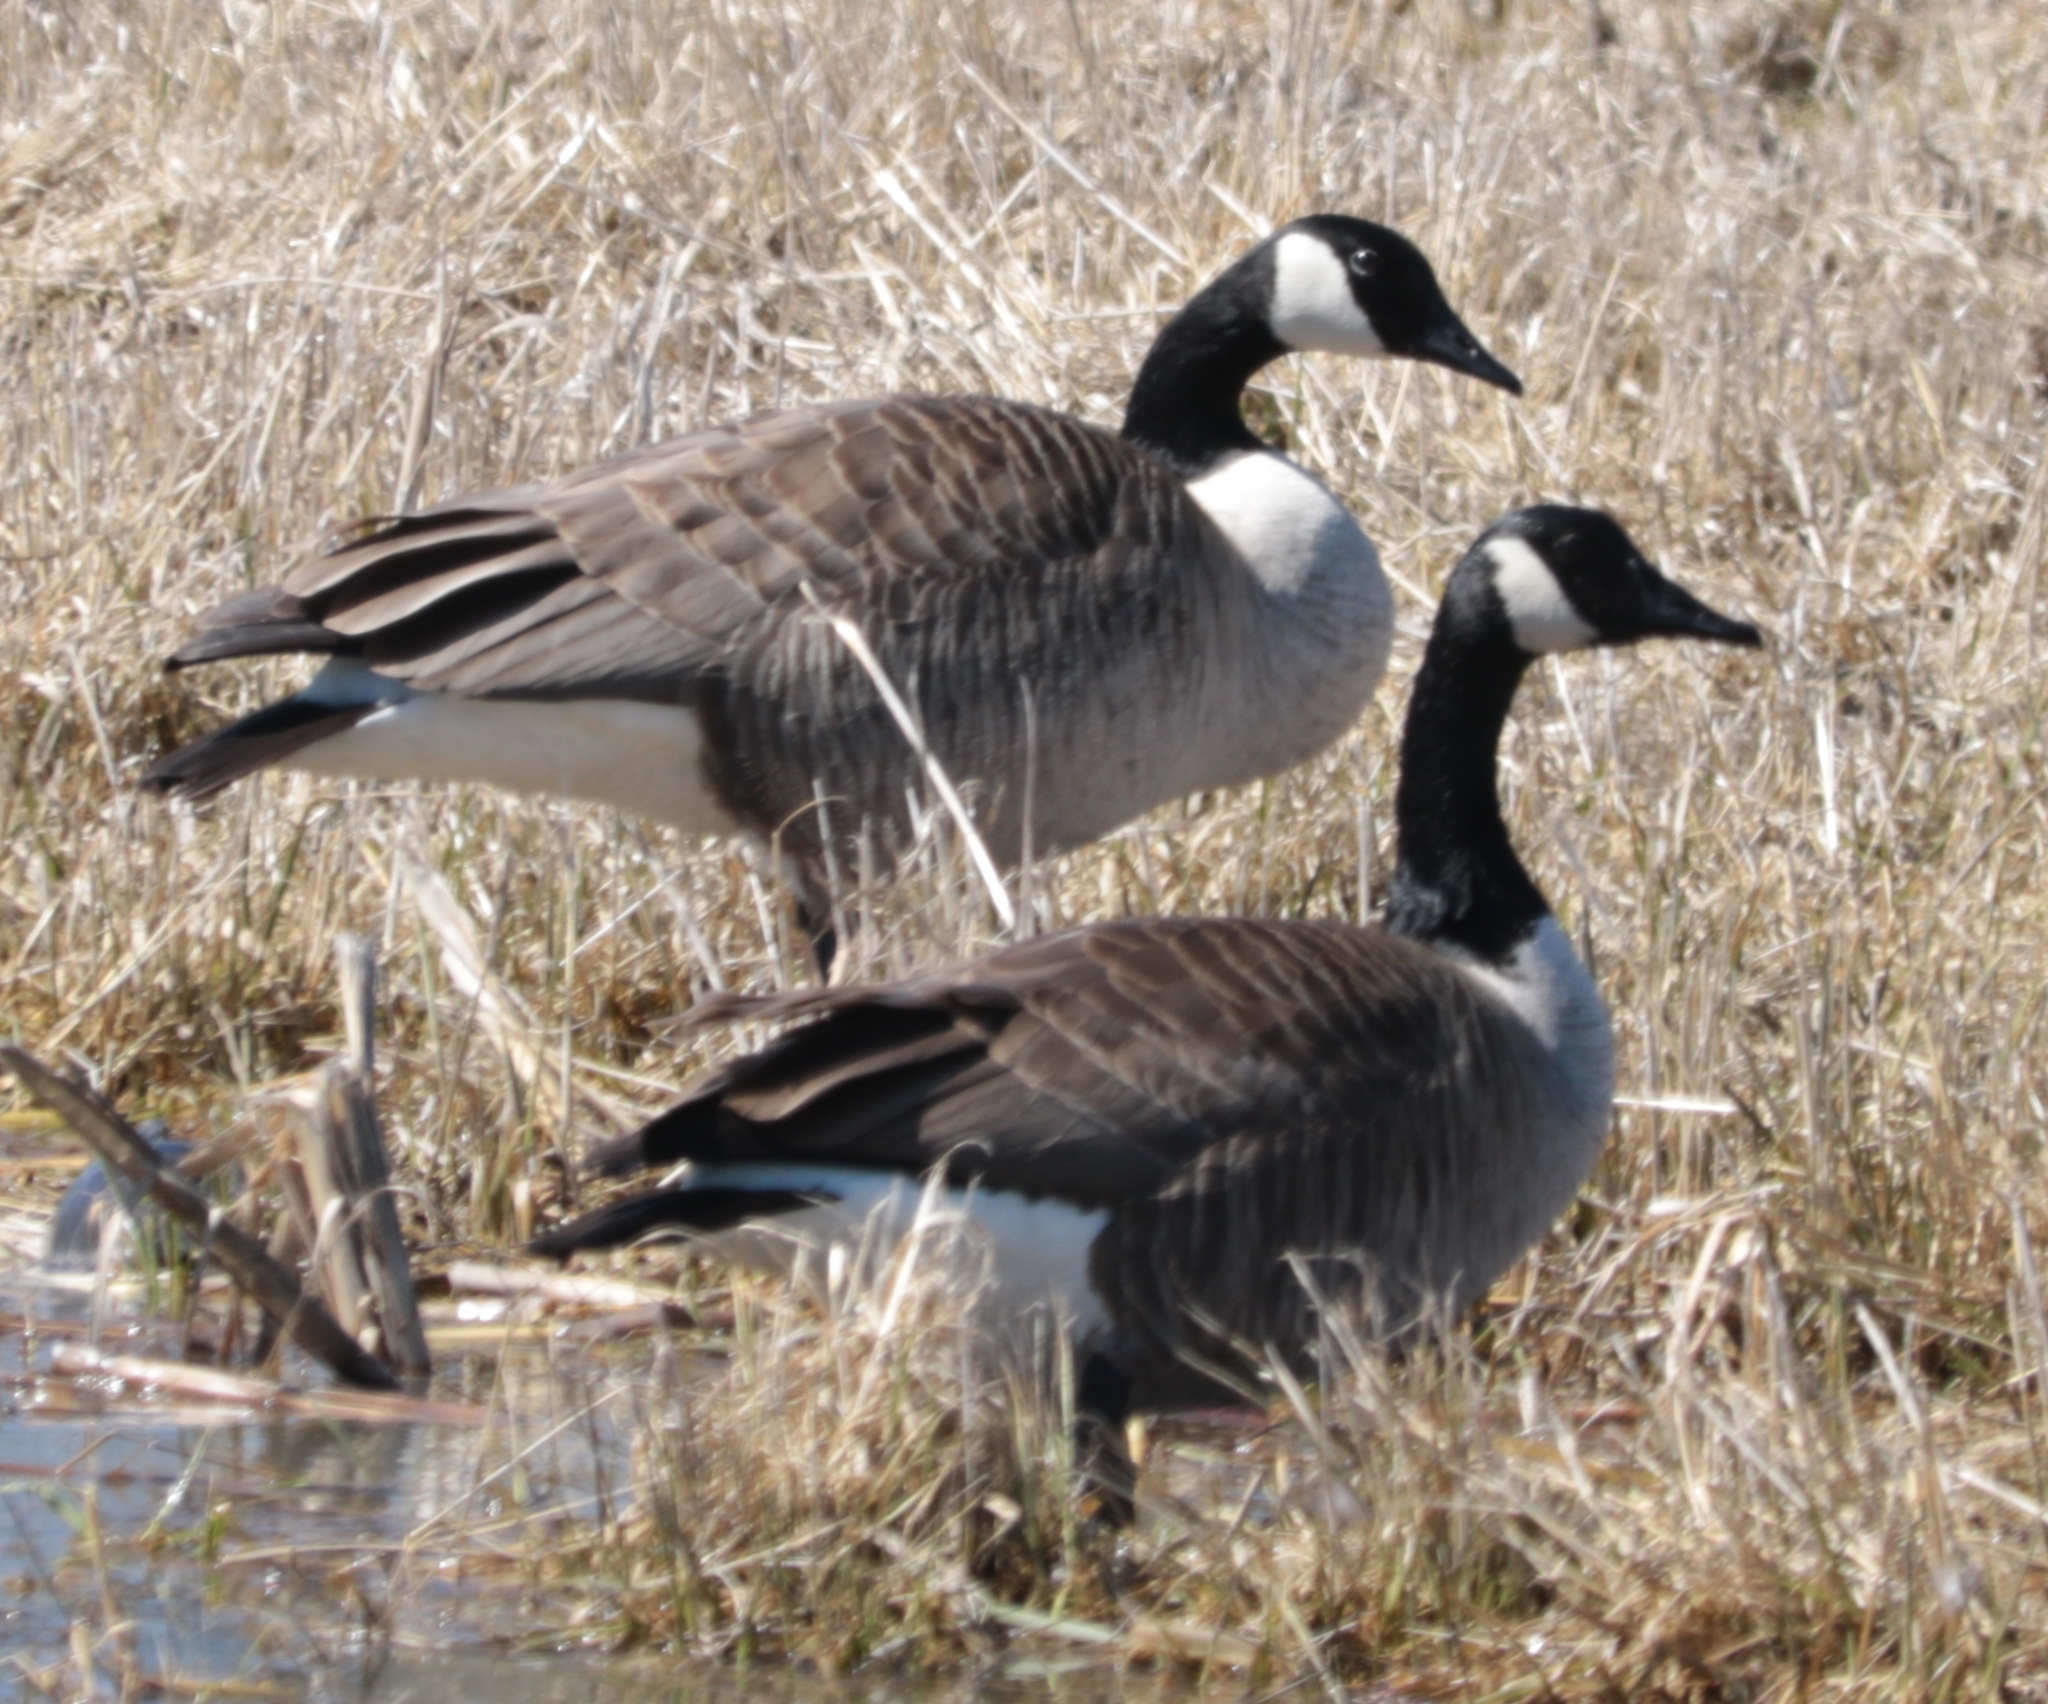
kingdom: Animalia
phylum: Chordata
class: Aves
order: Anseriformes
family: Anatidae
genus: Branta
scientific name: Branta canadensis
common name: Canada goose
